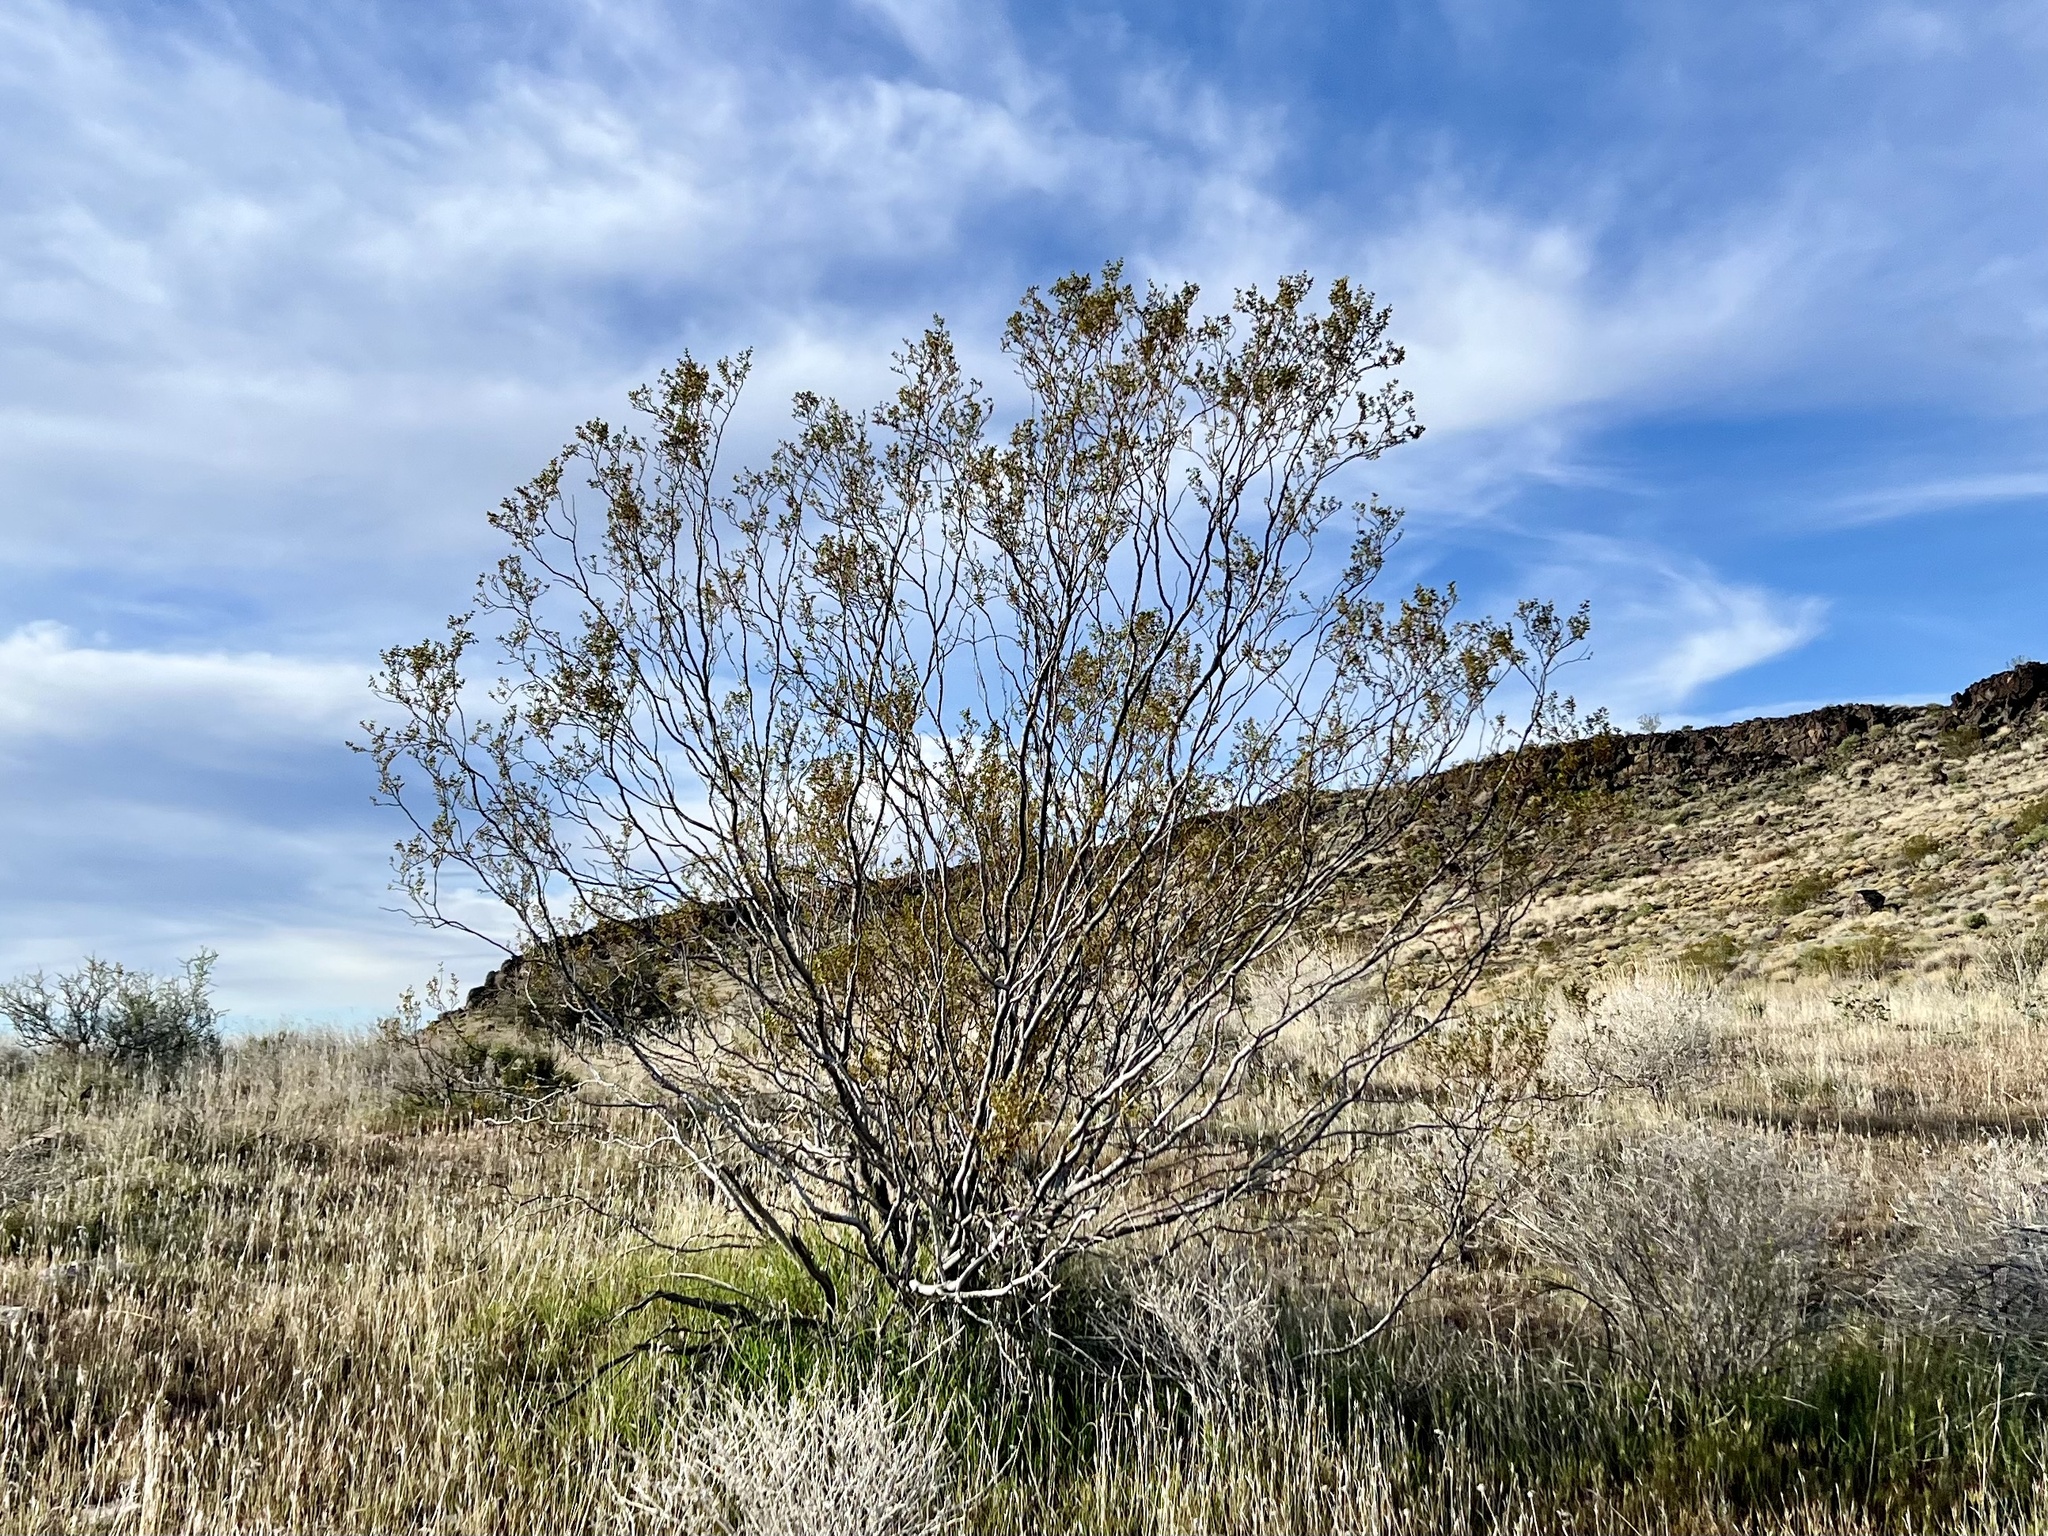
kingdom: Plantae
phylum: Tracheophyta
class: Magnoliopsida
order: Zygophyllales
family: Zygophyllaceae
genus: Larrea
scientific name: Larrea tridentata
